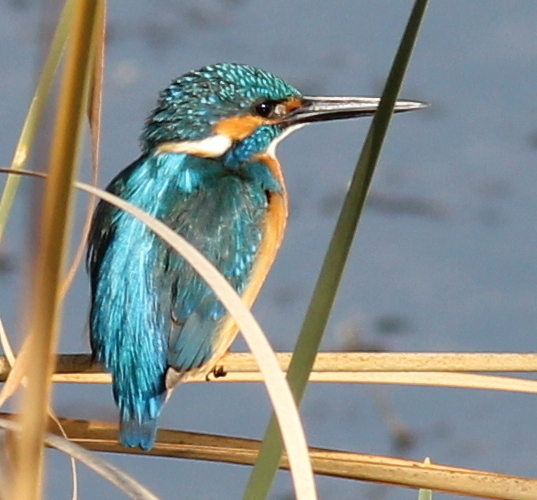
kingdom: Animalia
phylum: Chordata
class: Aves
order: Coraciiformes
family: Alcedinidae
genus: Alcedo
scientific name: Alcedo atthis
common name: Common kingfisher
